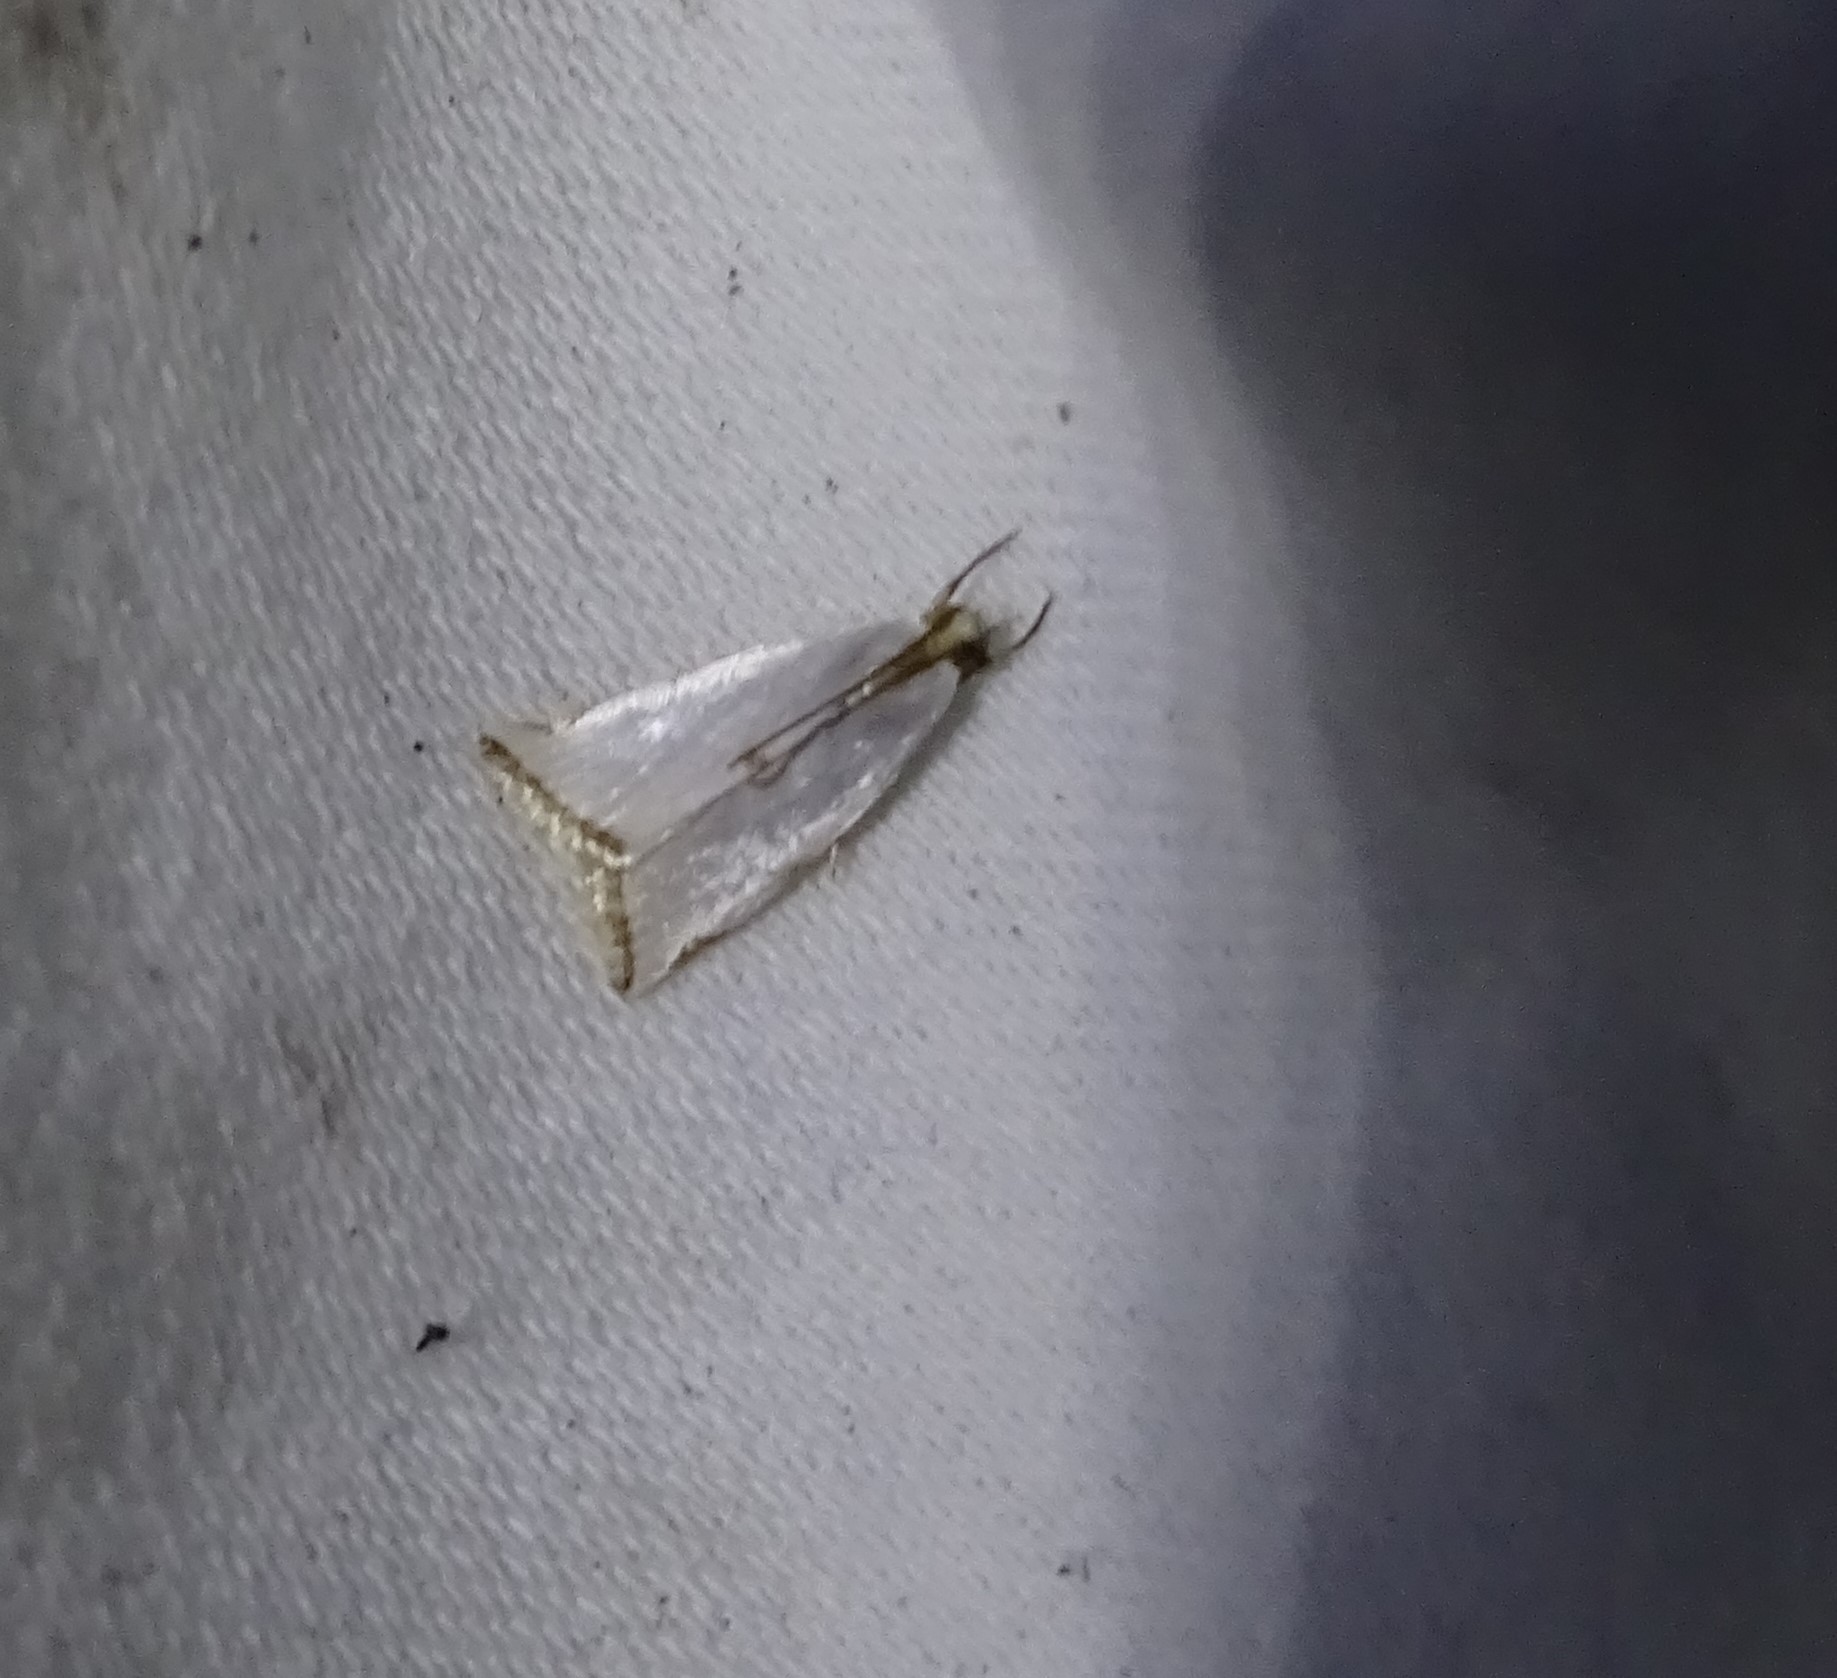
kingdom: Animalia
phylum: Arthropoda
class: Insecta
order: Lepidoptera
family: Crambidae
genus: Argyria
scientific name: Argyria nivalis
